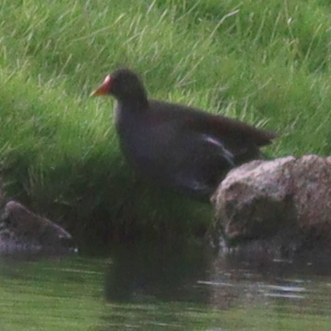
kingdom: Animalia
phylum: Chordata
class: Aves
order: Gruiformes
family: Rallidae
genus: Gallinula
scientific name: Gallinula chloropus
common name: Common moorhen
